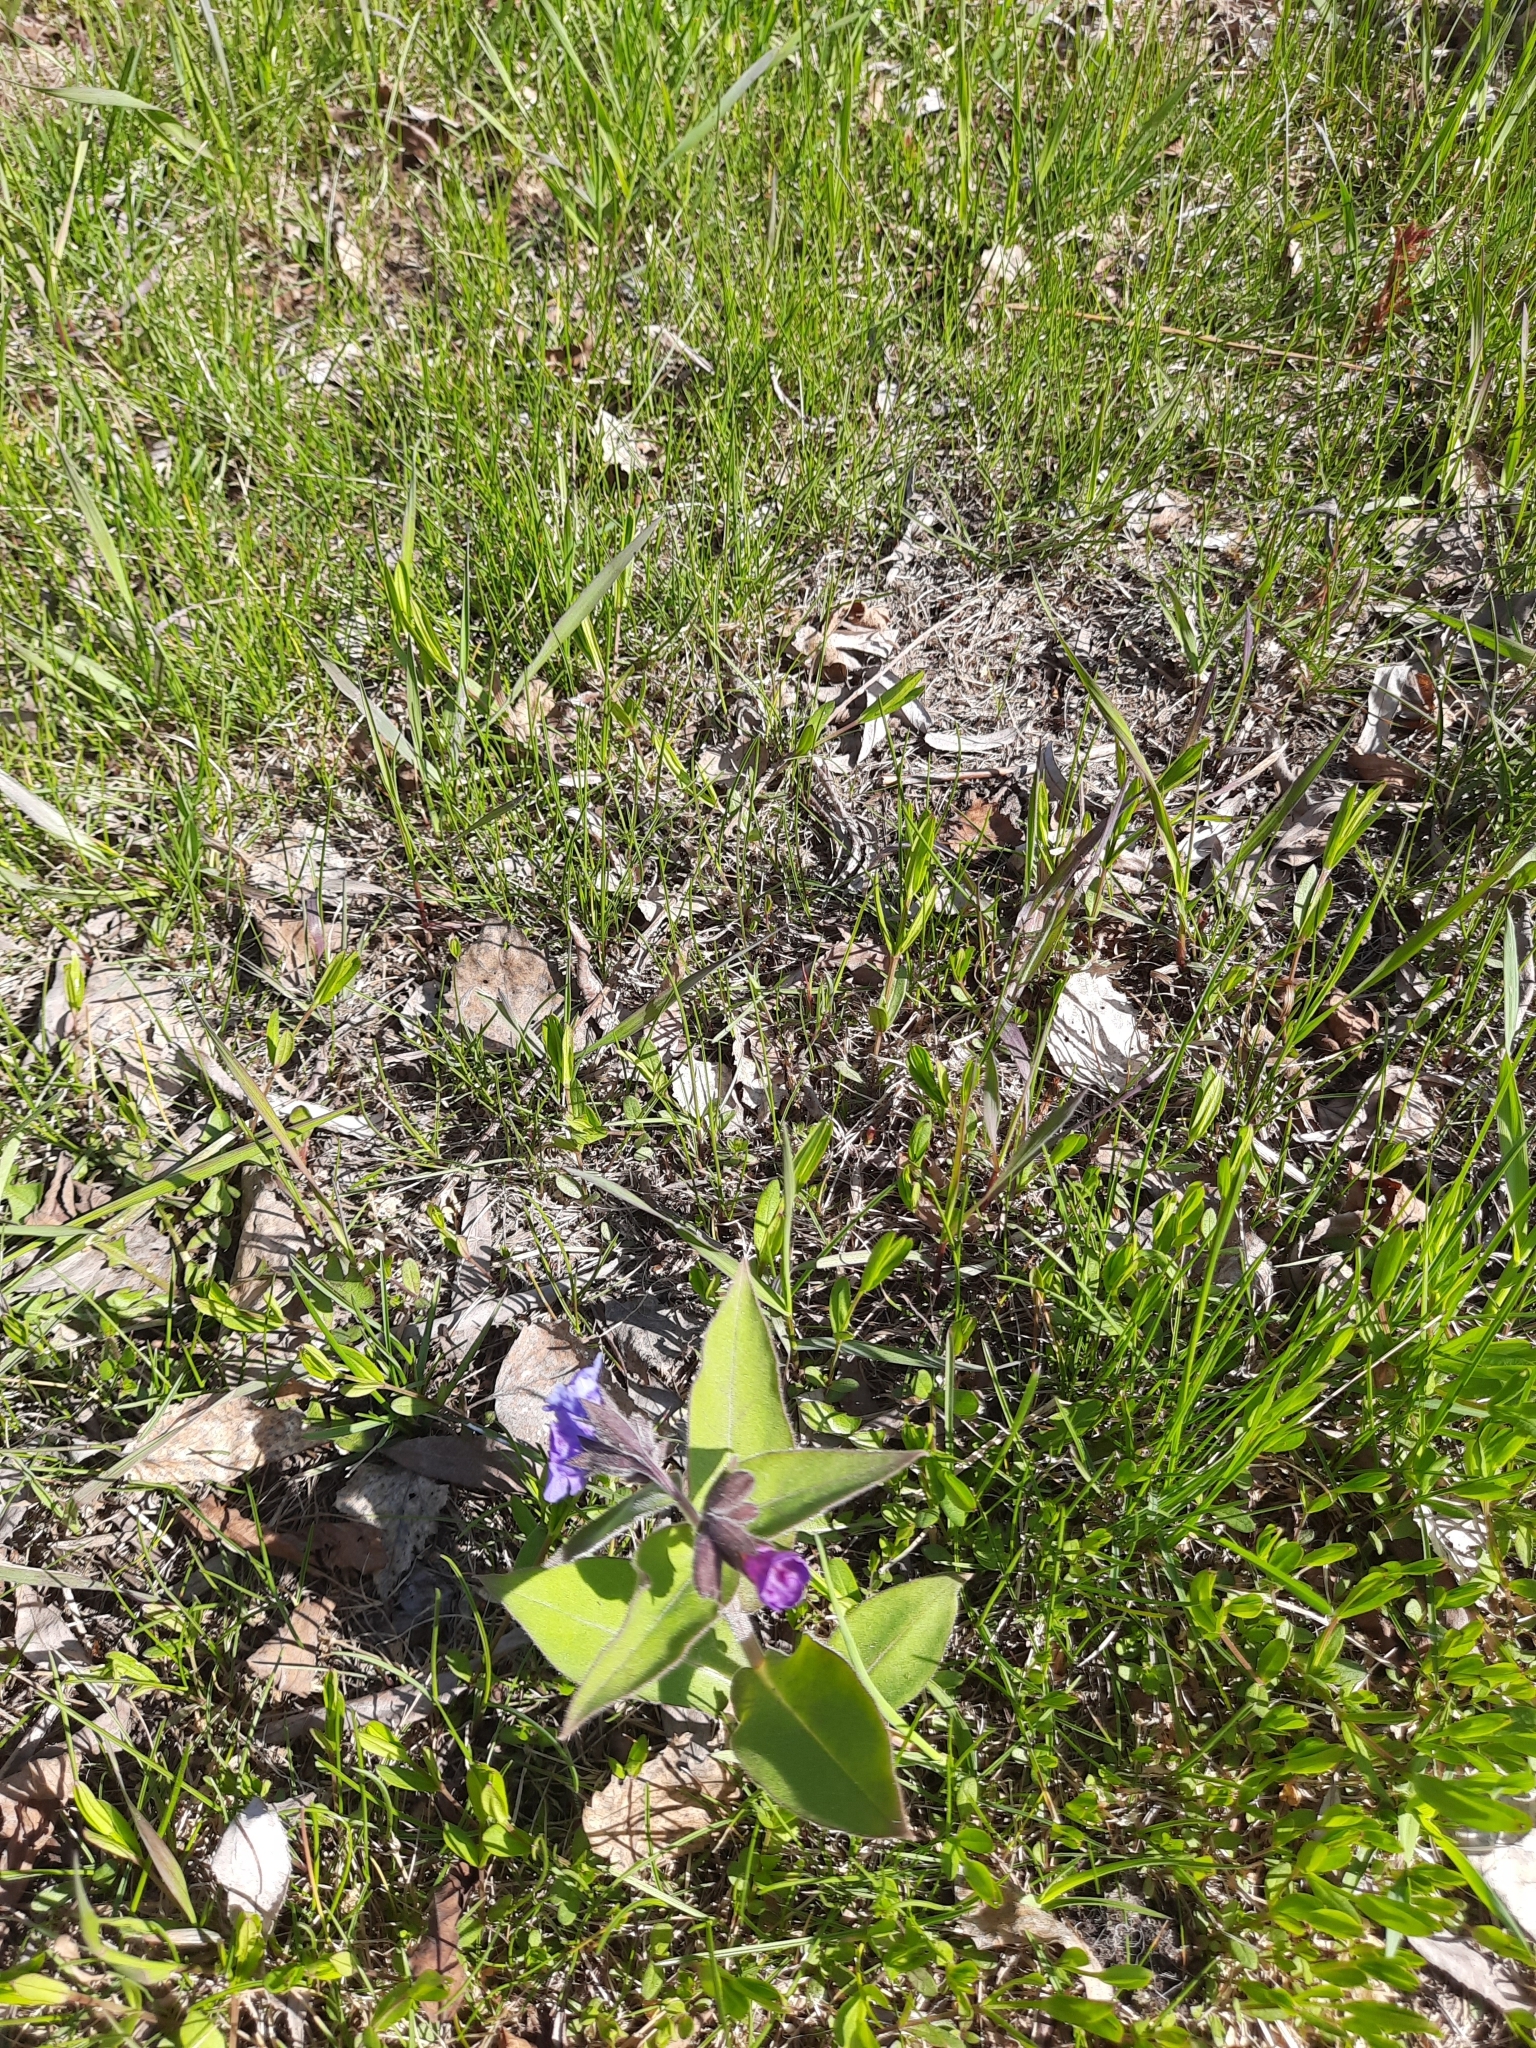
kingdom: Plantae
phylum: Tracheophyta
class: Magnoliopsida
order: Boraginales
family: Boraginaceae
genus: Pulmonaria
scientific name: Pulmonaria mollis
